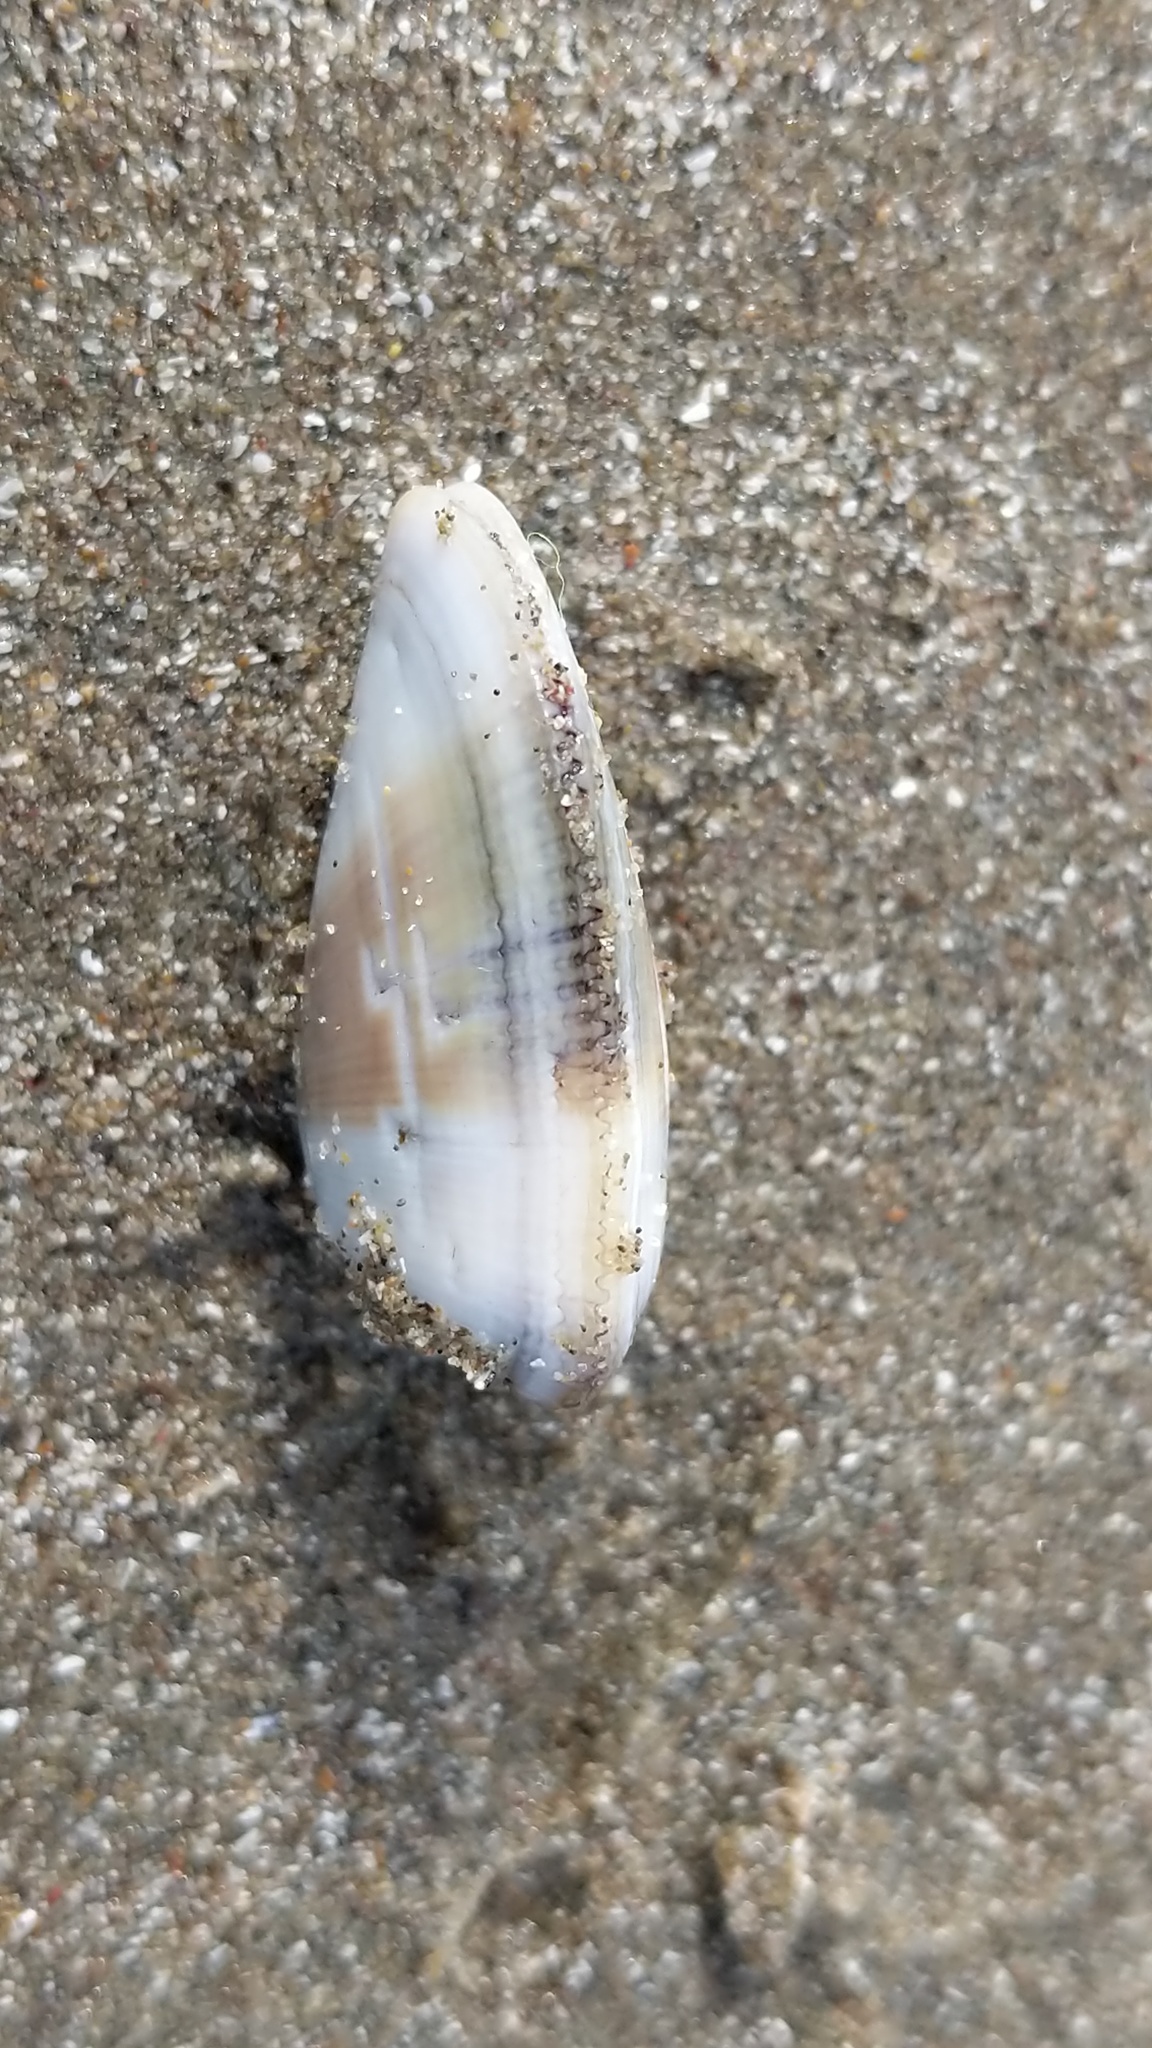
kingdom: Animalia
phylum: Mollusca
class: Bivalvia
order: Cardiida
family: Donacidae
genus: Donax
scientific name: Donax gouldii
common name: Gould beanclam
